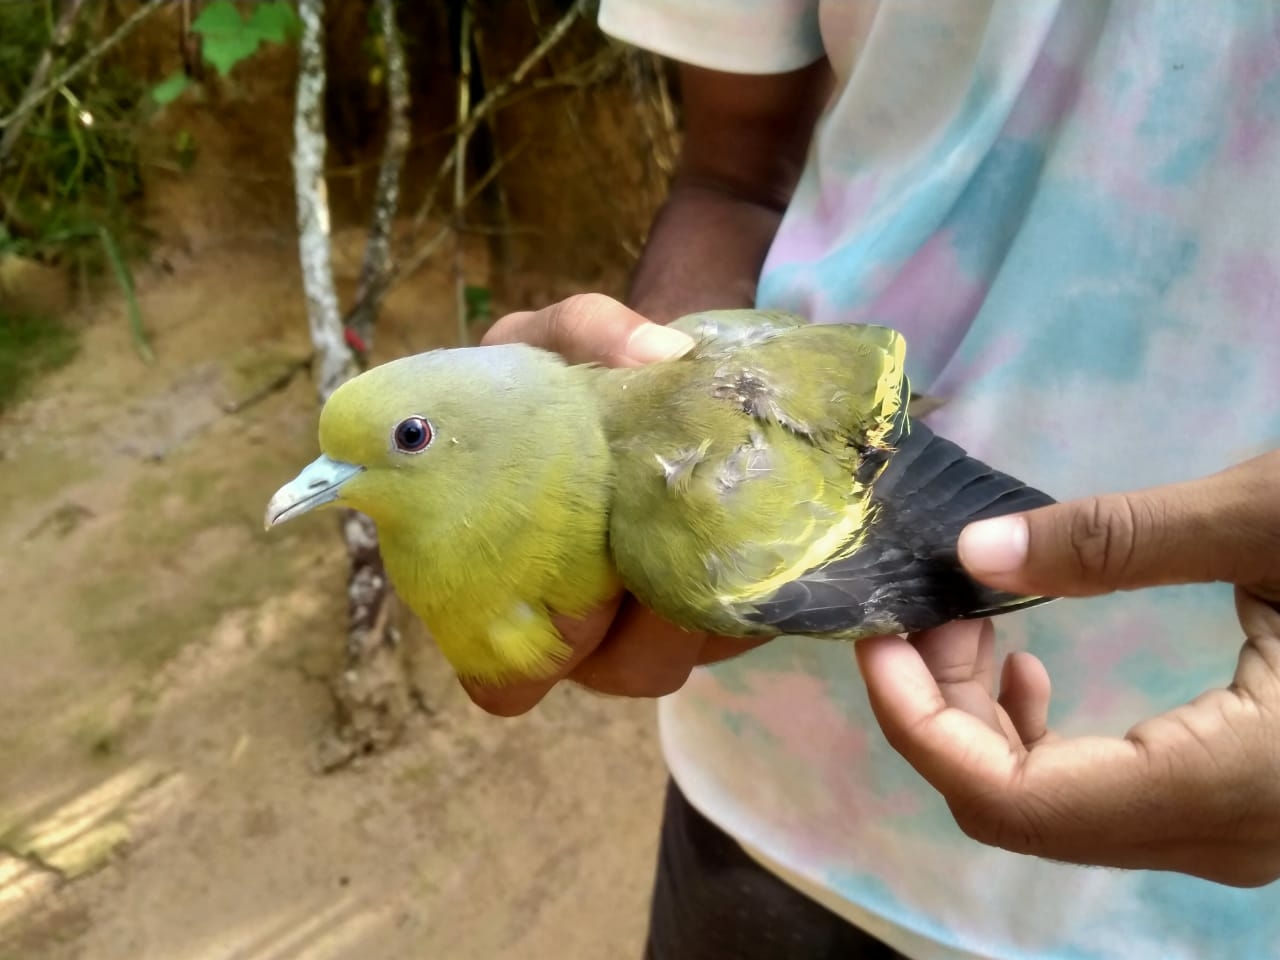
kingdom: Animalia
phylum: Chordata
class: Aves
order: Columbiformes
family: Columbidae
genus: Treron
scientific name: Treron apicauda
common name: Pin-tailed green pigeon
